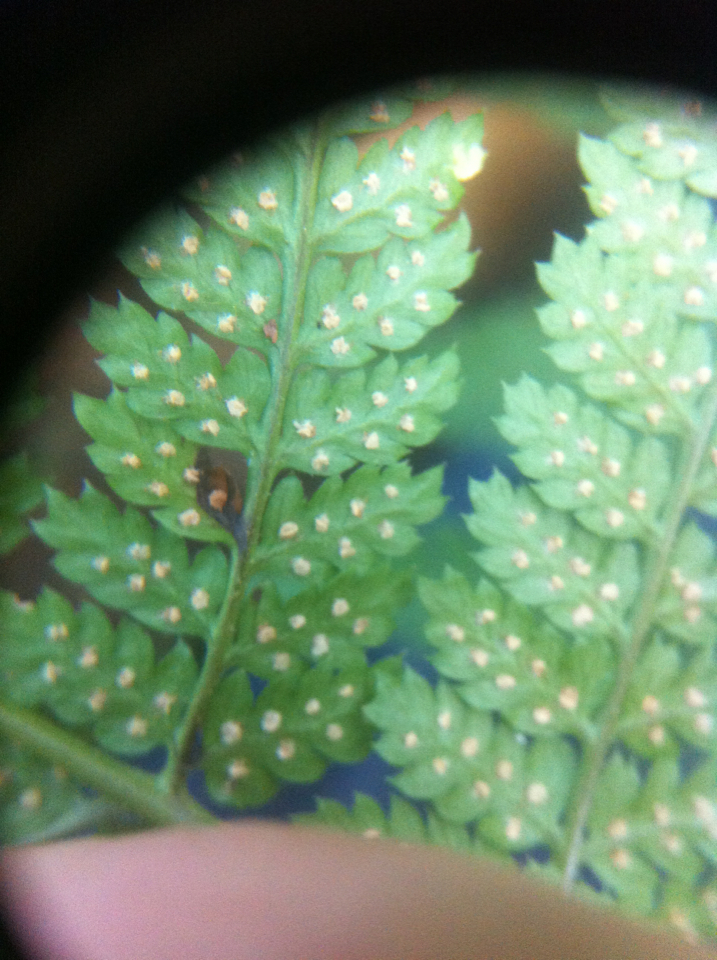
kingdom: Plantae
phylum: Tracheophyta
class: Polypodiopsida
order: Polypodiales
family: Dryopteridaceae
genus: Dryopteris
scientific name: Dryopteris intermedia
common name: Evergreen wood fern
